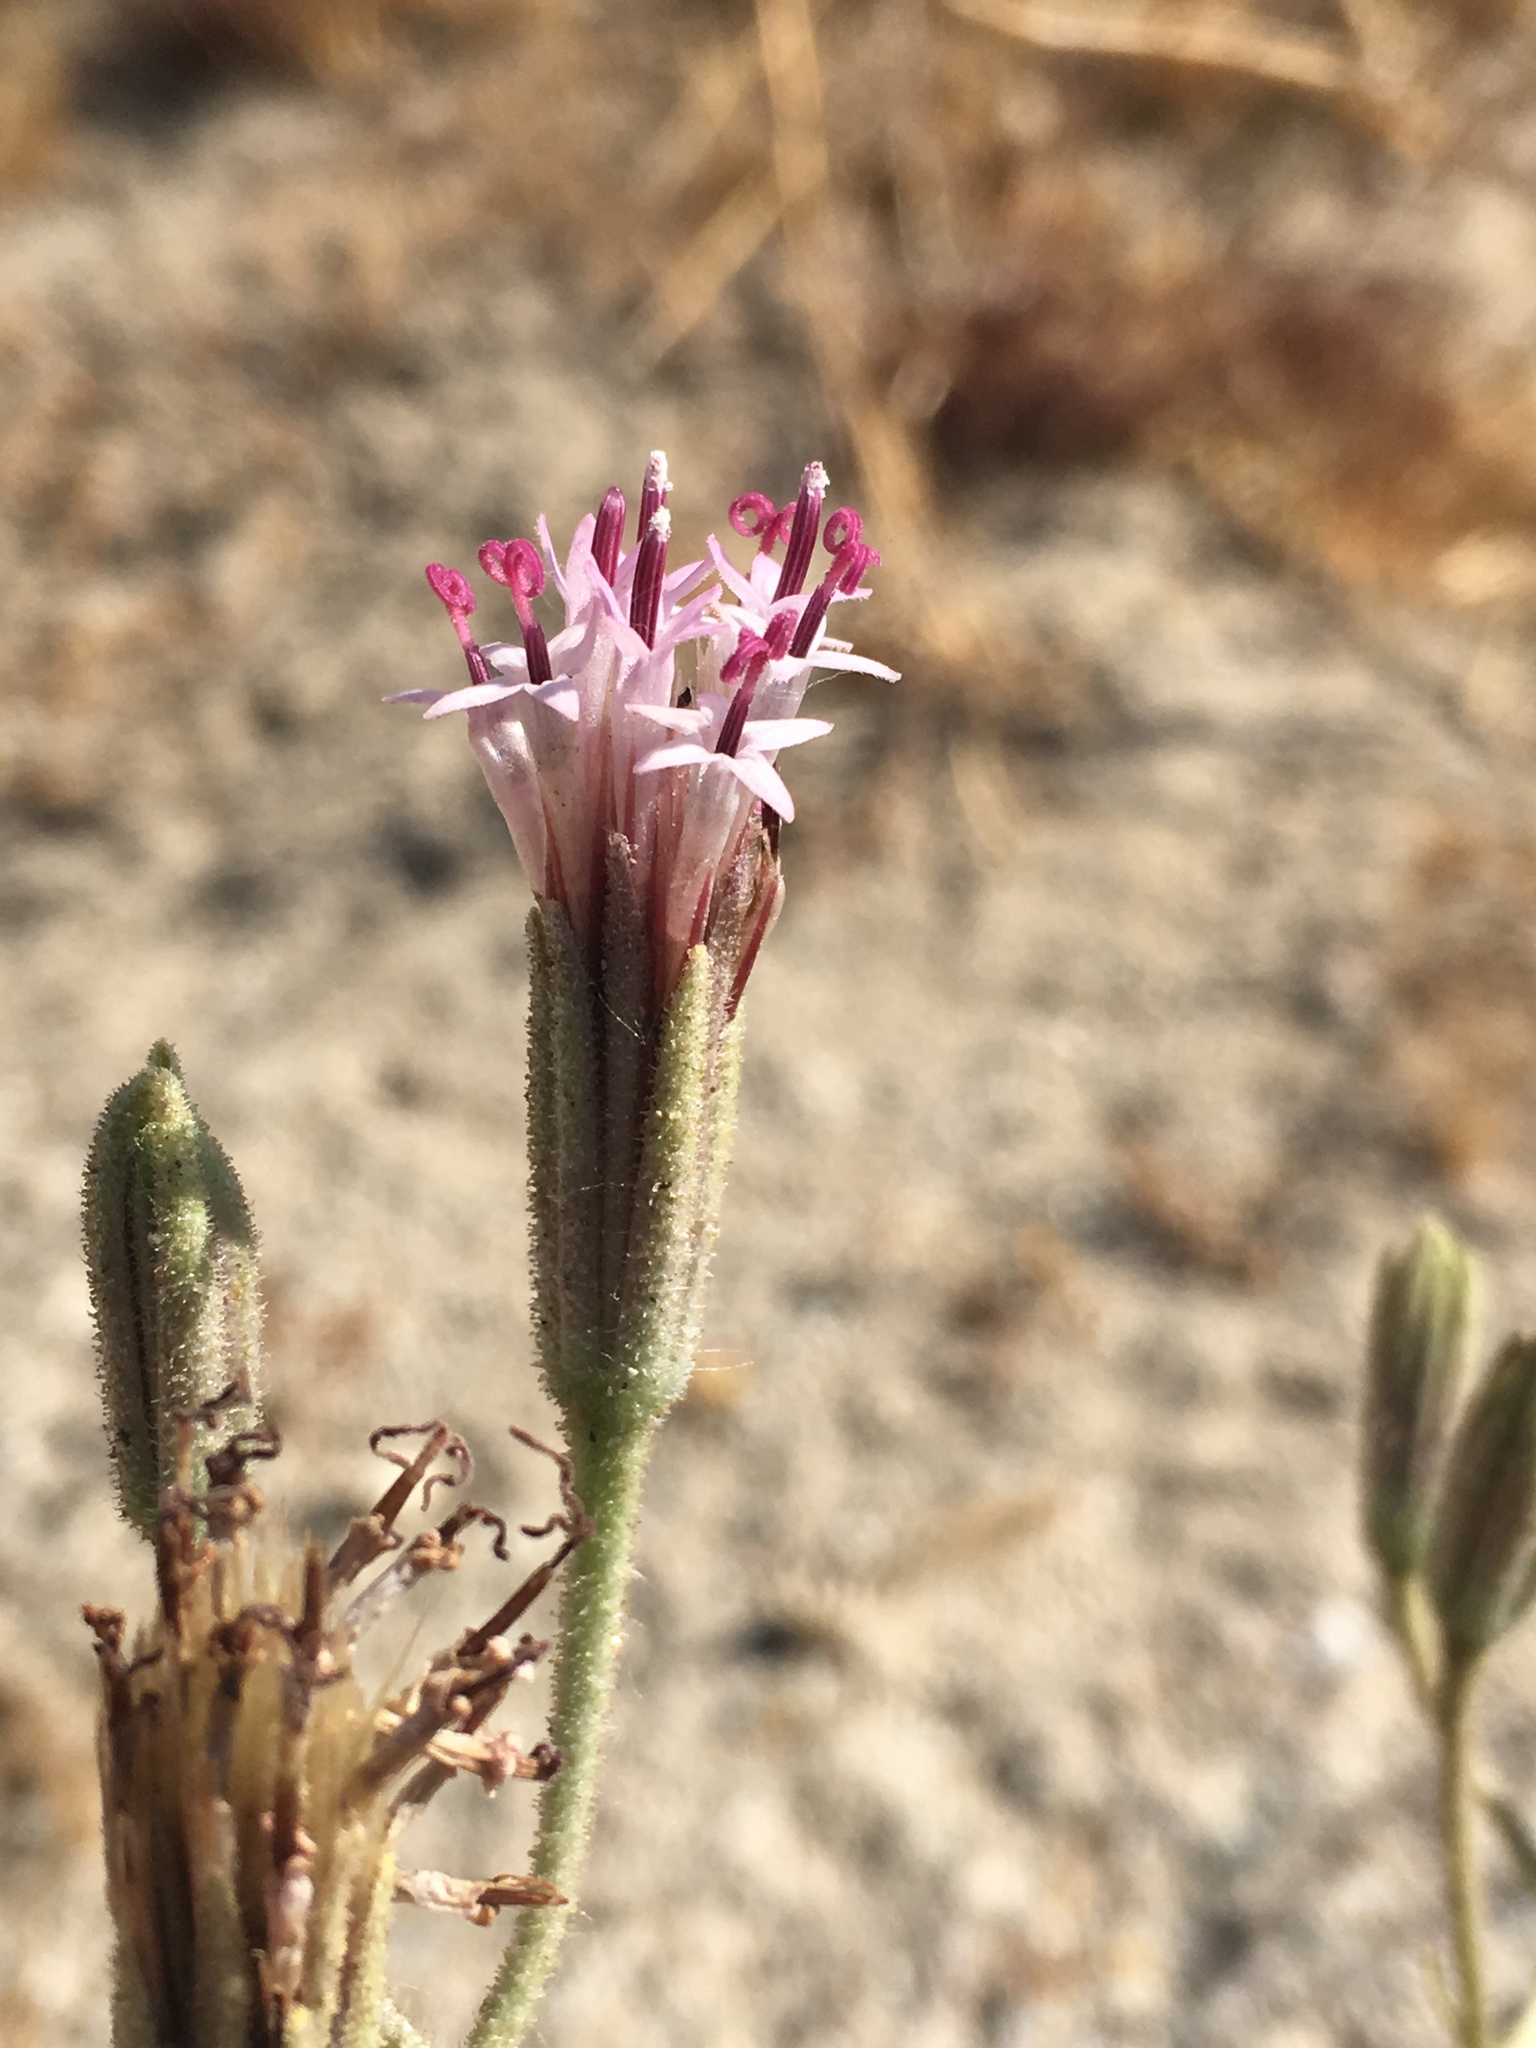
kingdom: Plantae
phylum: Tracheophyta
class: Magnoliopsida
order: Asterales
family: Asteraceae
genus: Palafoxia
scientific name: Palafoxia arida
